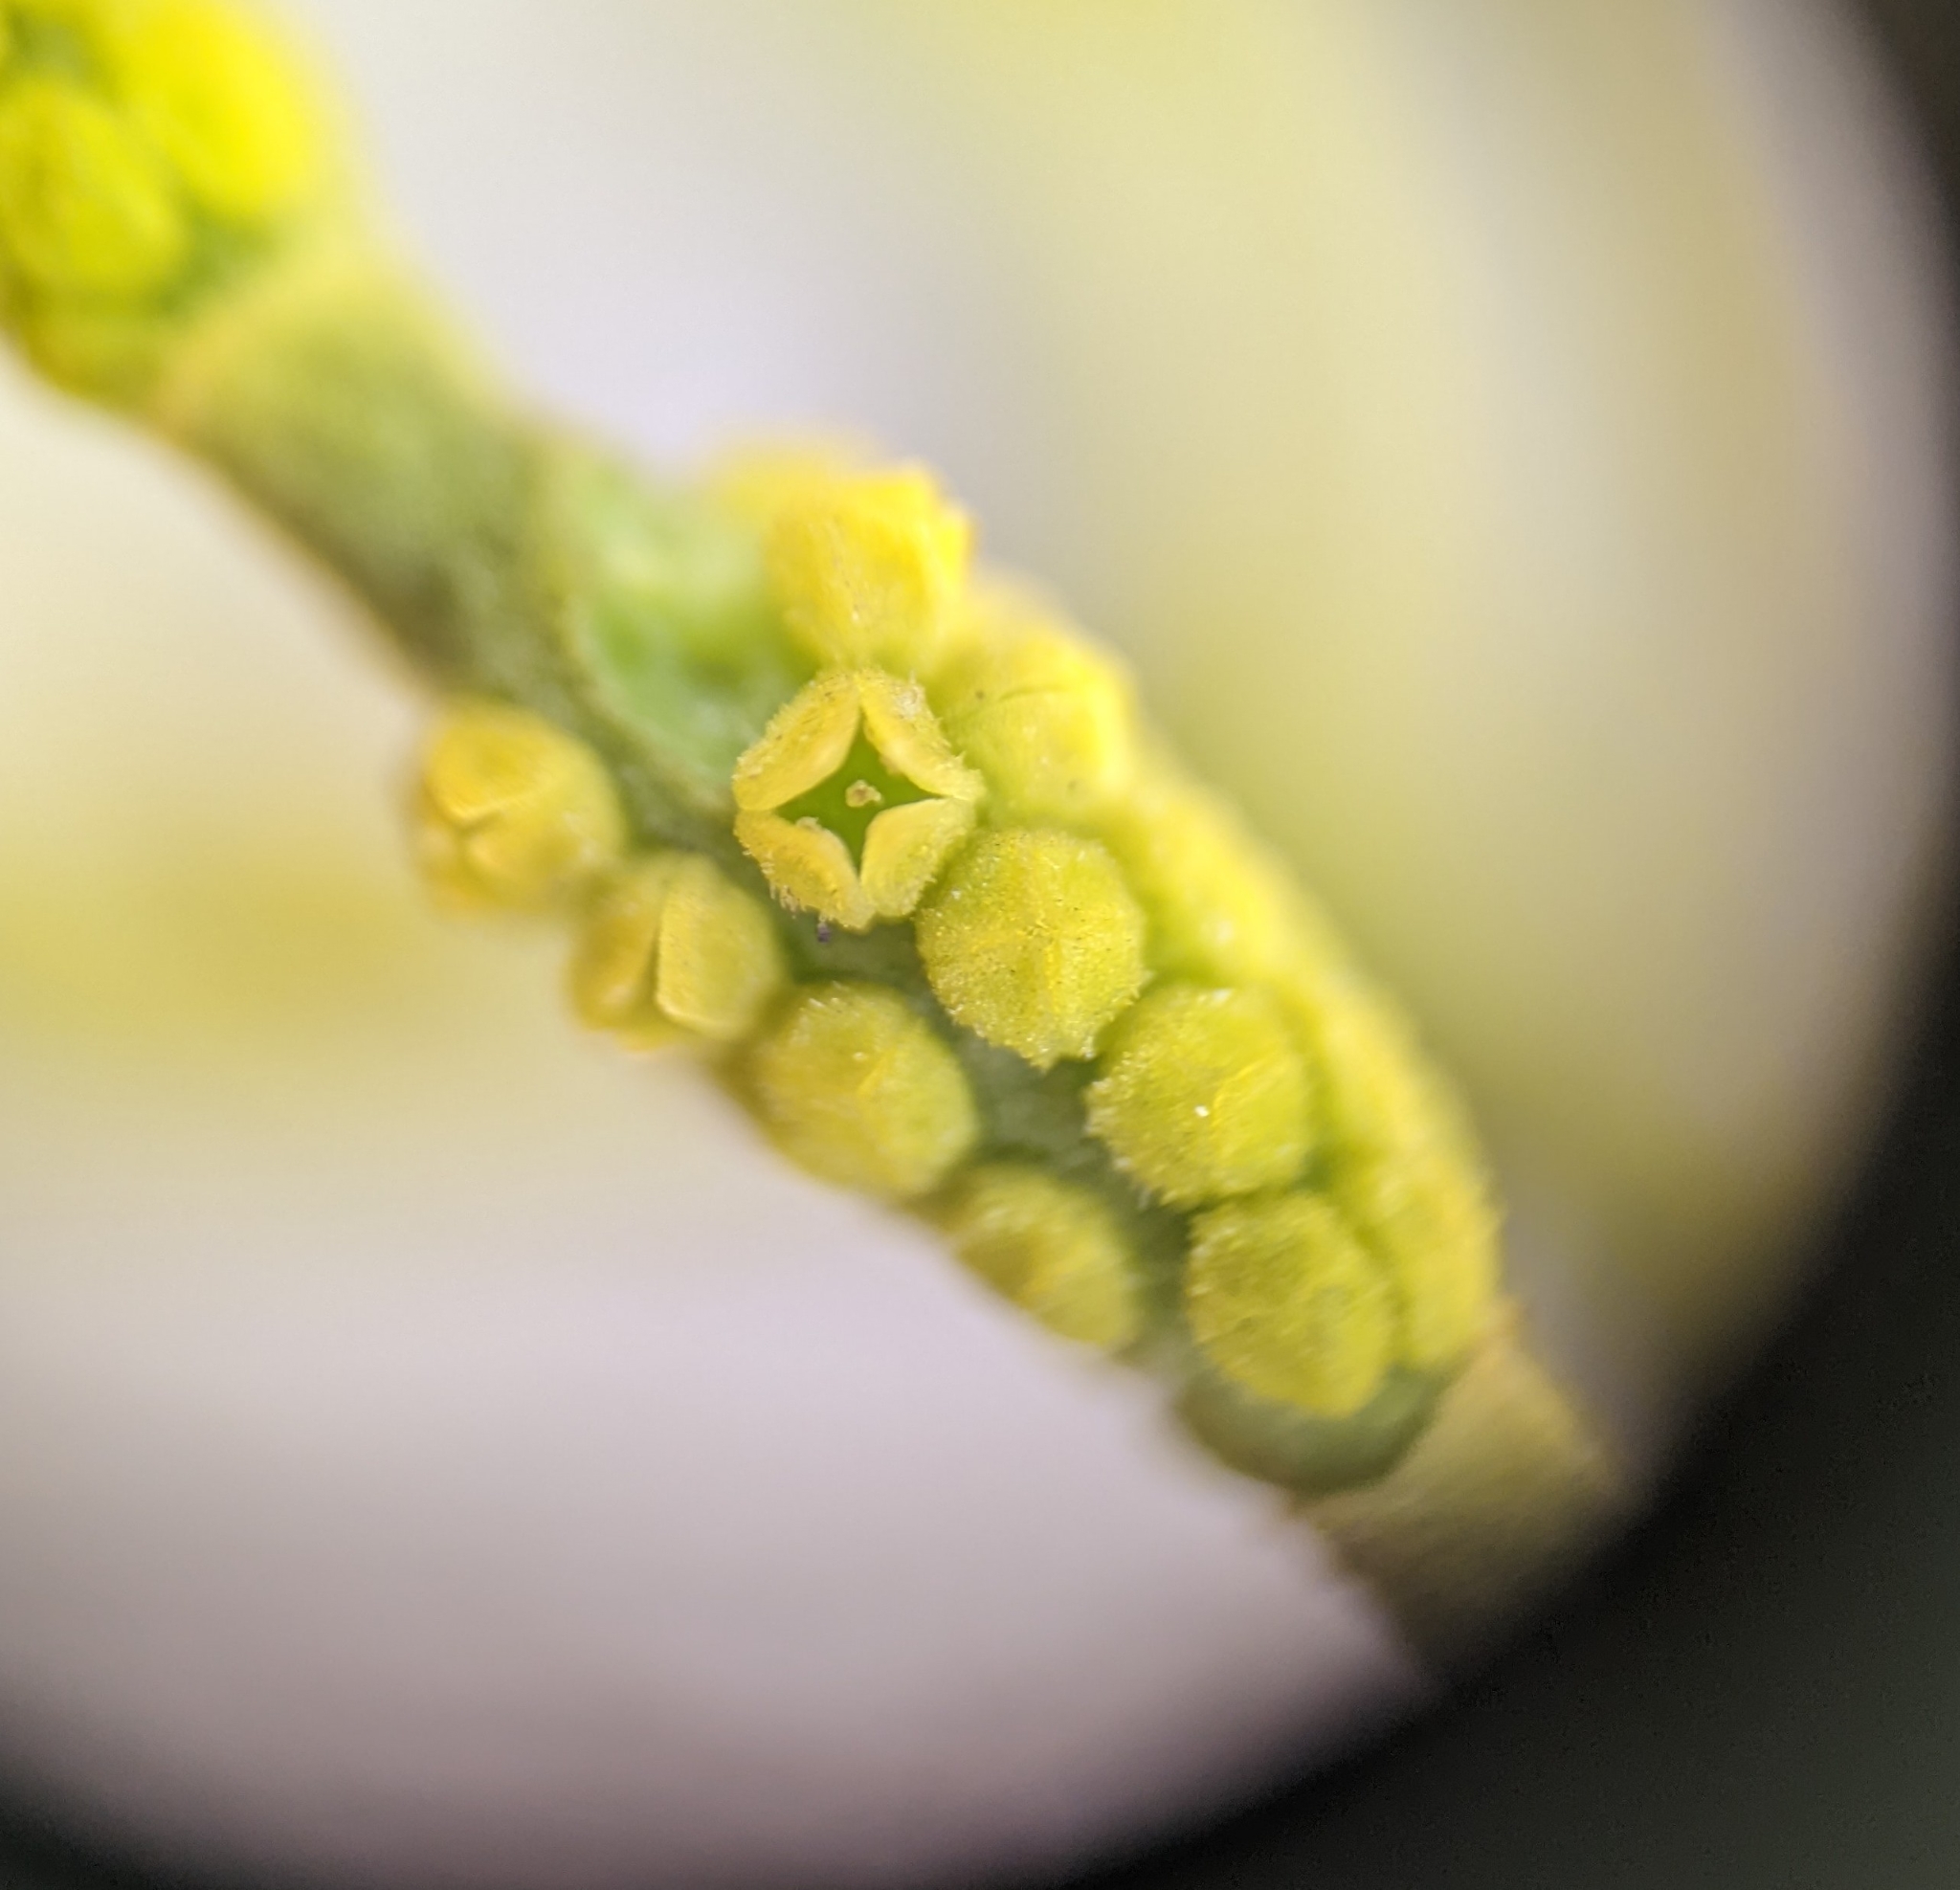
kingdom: Plantae
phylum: Tracheophyta
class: Magnoliopsida
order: Santalales
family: Viscaceae
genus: Phoradendron
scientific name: Phoradendron leucarpum
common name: Pacific mistletoe
